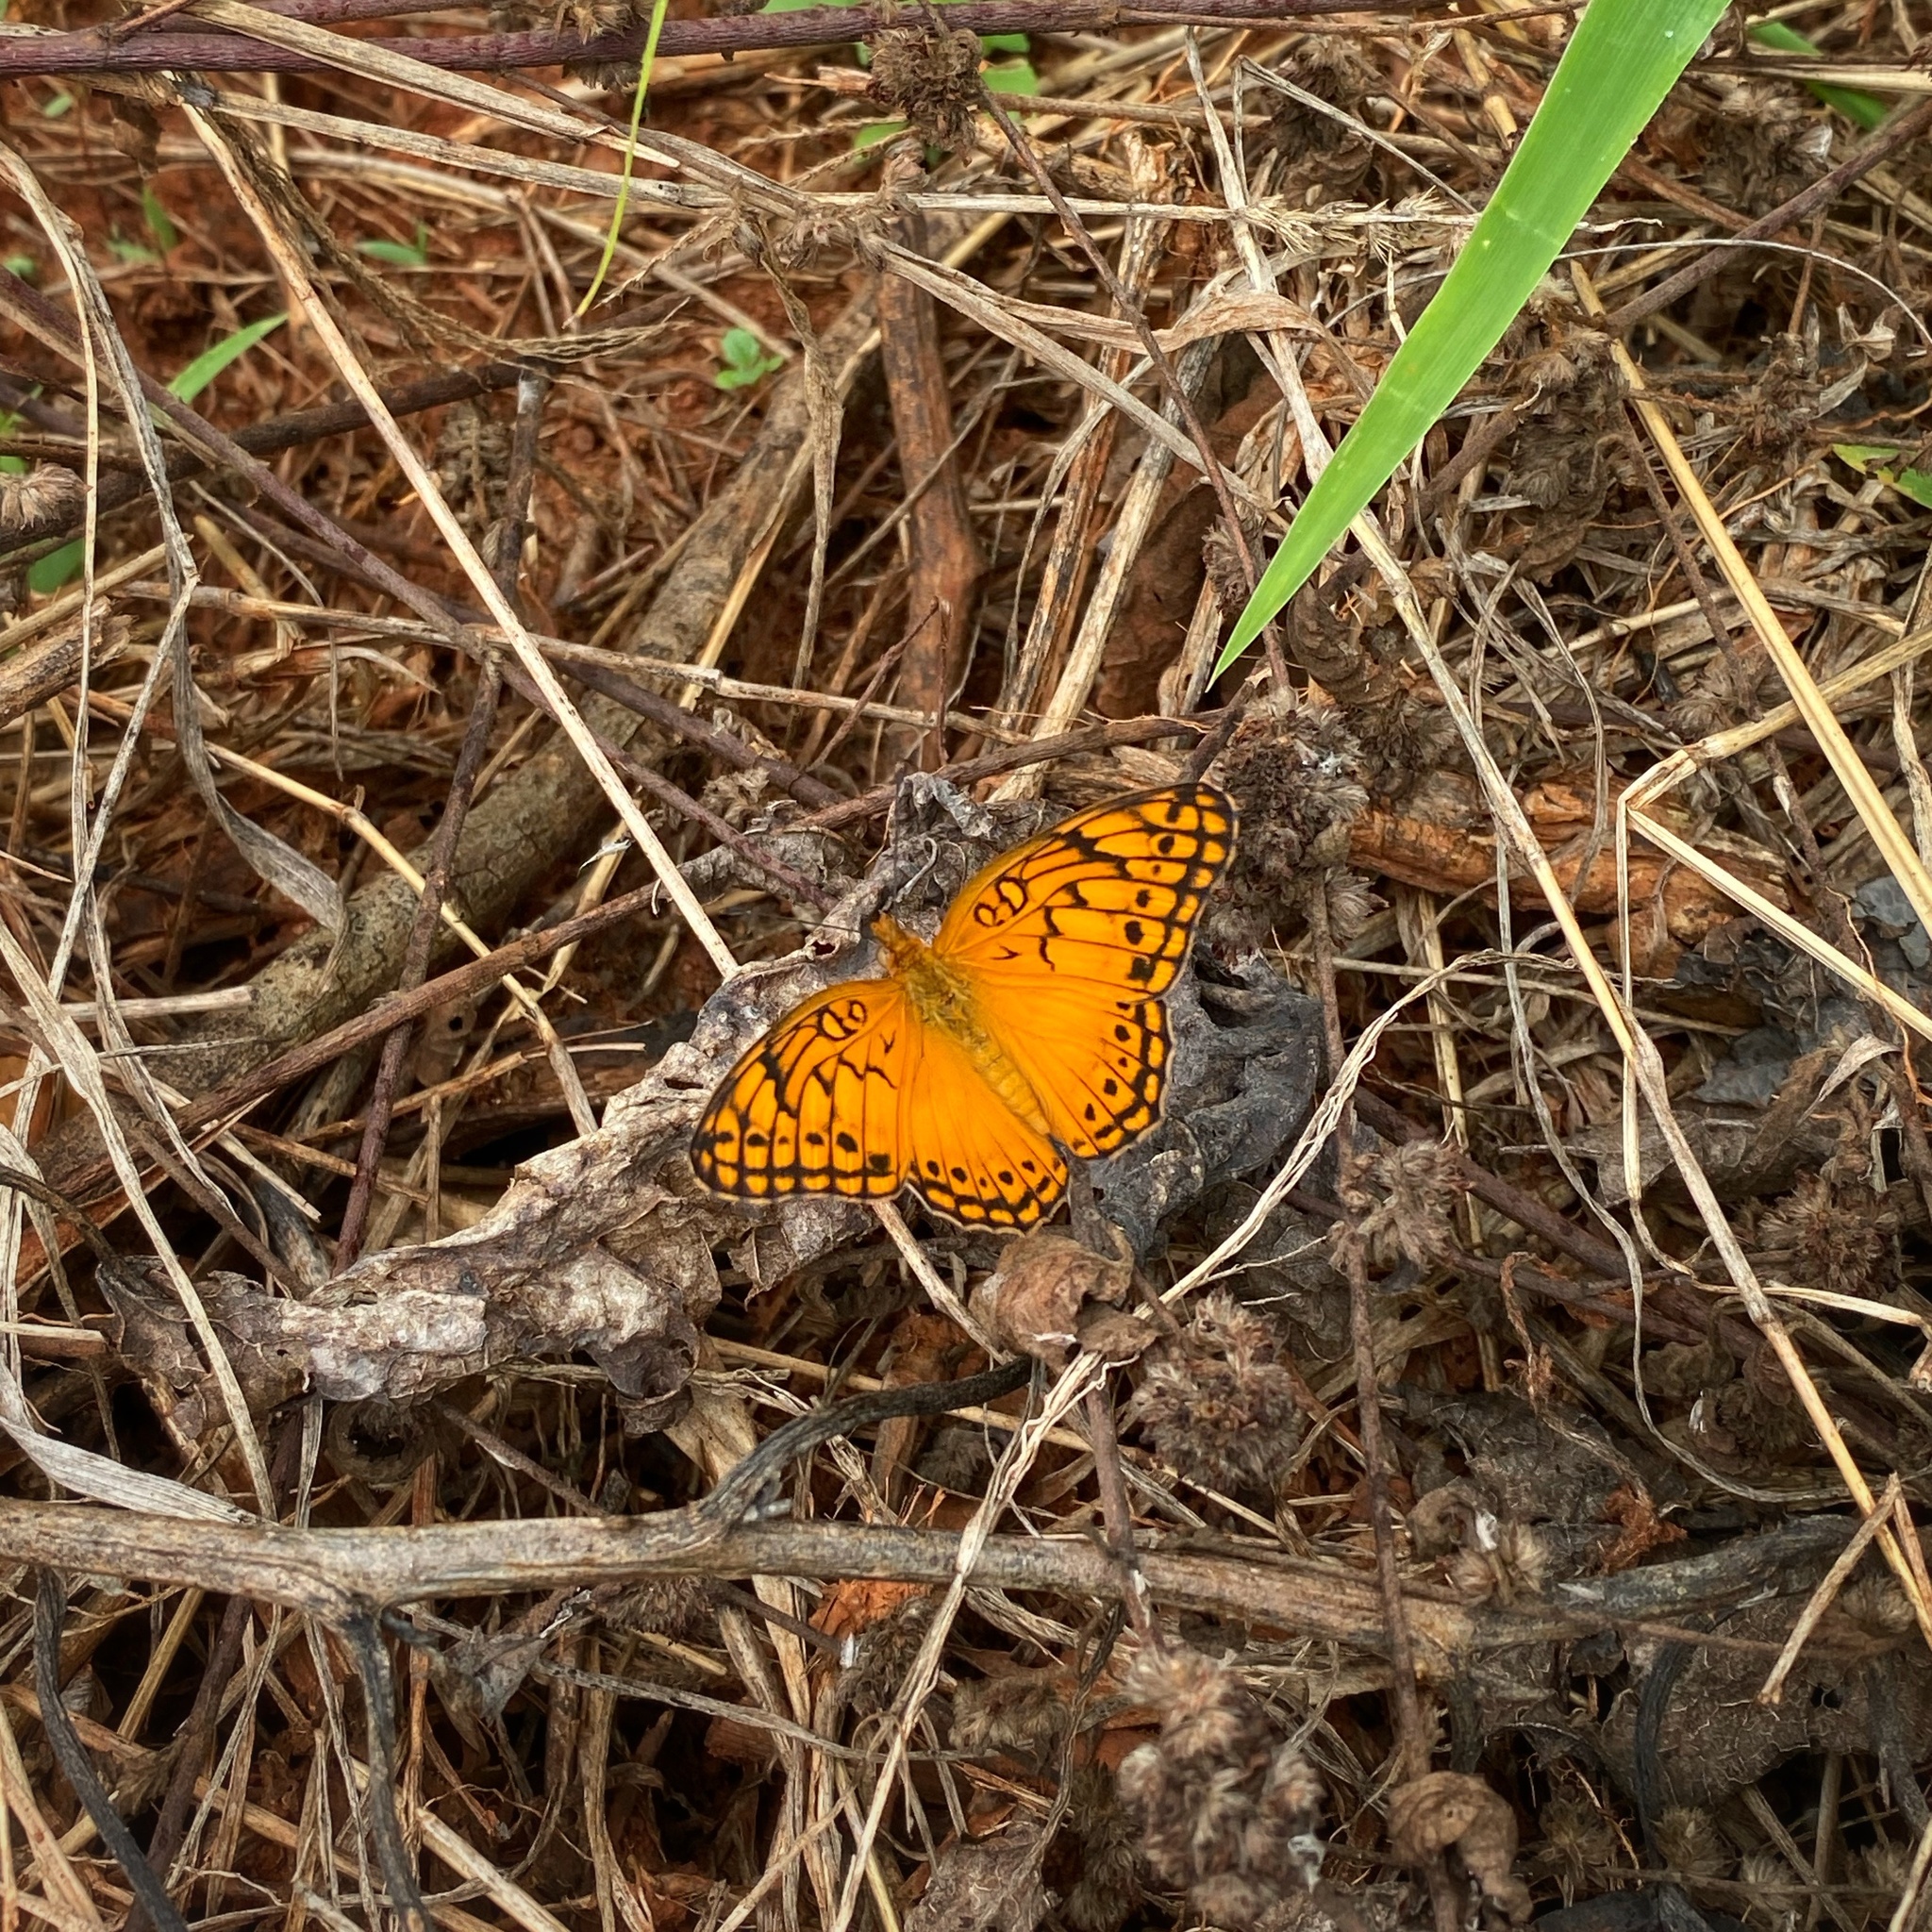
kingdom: Animalia
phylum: Arthropoda
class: Insecta
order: Lepidoptera
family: Nymphalidae
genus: Euptoieta
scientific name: Euptoieta hegesia
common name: Mexican fritillary
